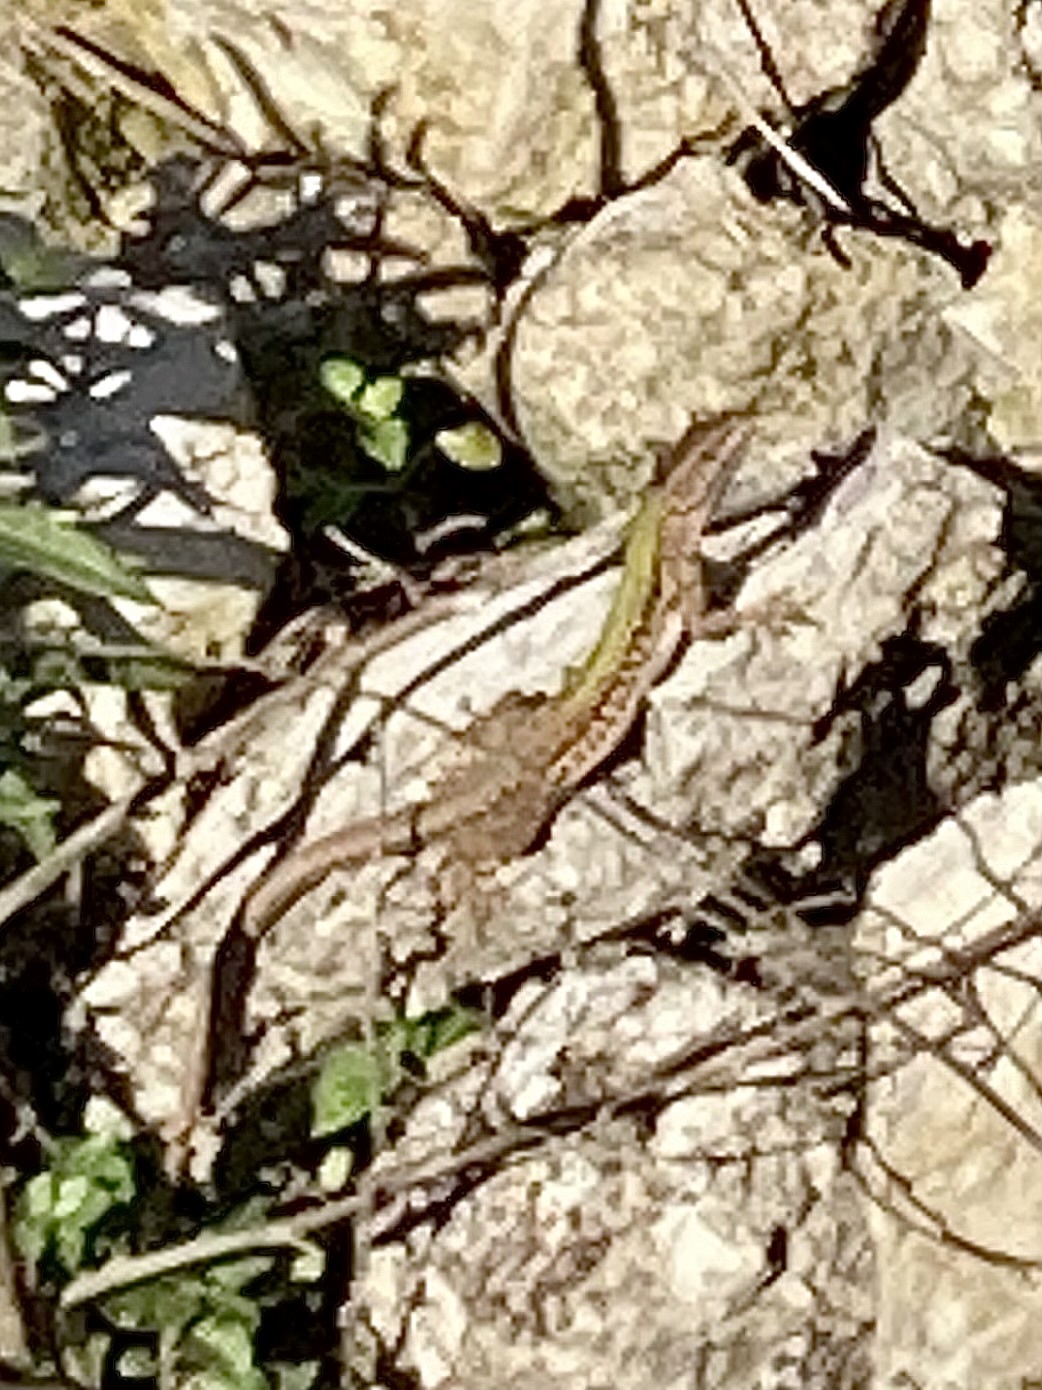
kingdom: Animalia
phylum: Chordata
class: Squamata
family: Lacertidae
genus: Podarcis
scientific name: Podarcis siculus
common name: Italian wall lizard
